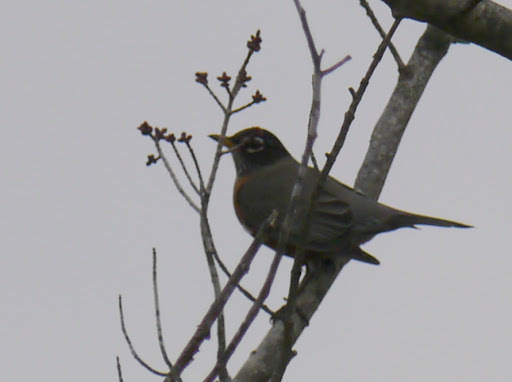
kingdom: Animalia
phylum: Chordata
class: Aves
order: Passeriformes
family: Turdidae
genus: Turdus
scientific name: Turdus migratorius
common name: American robin
